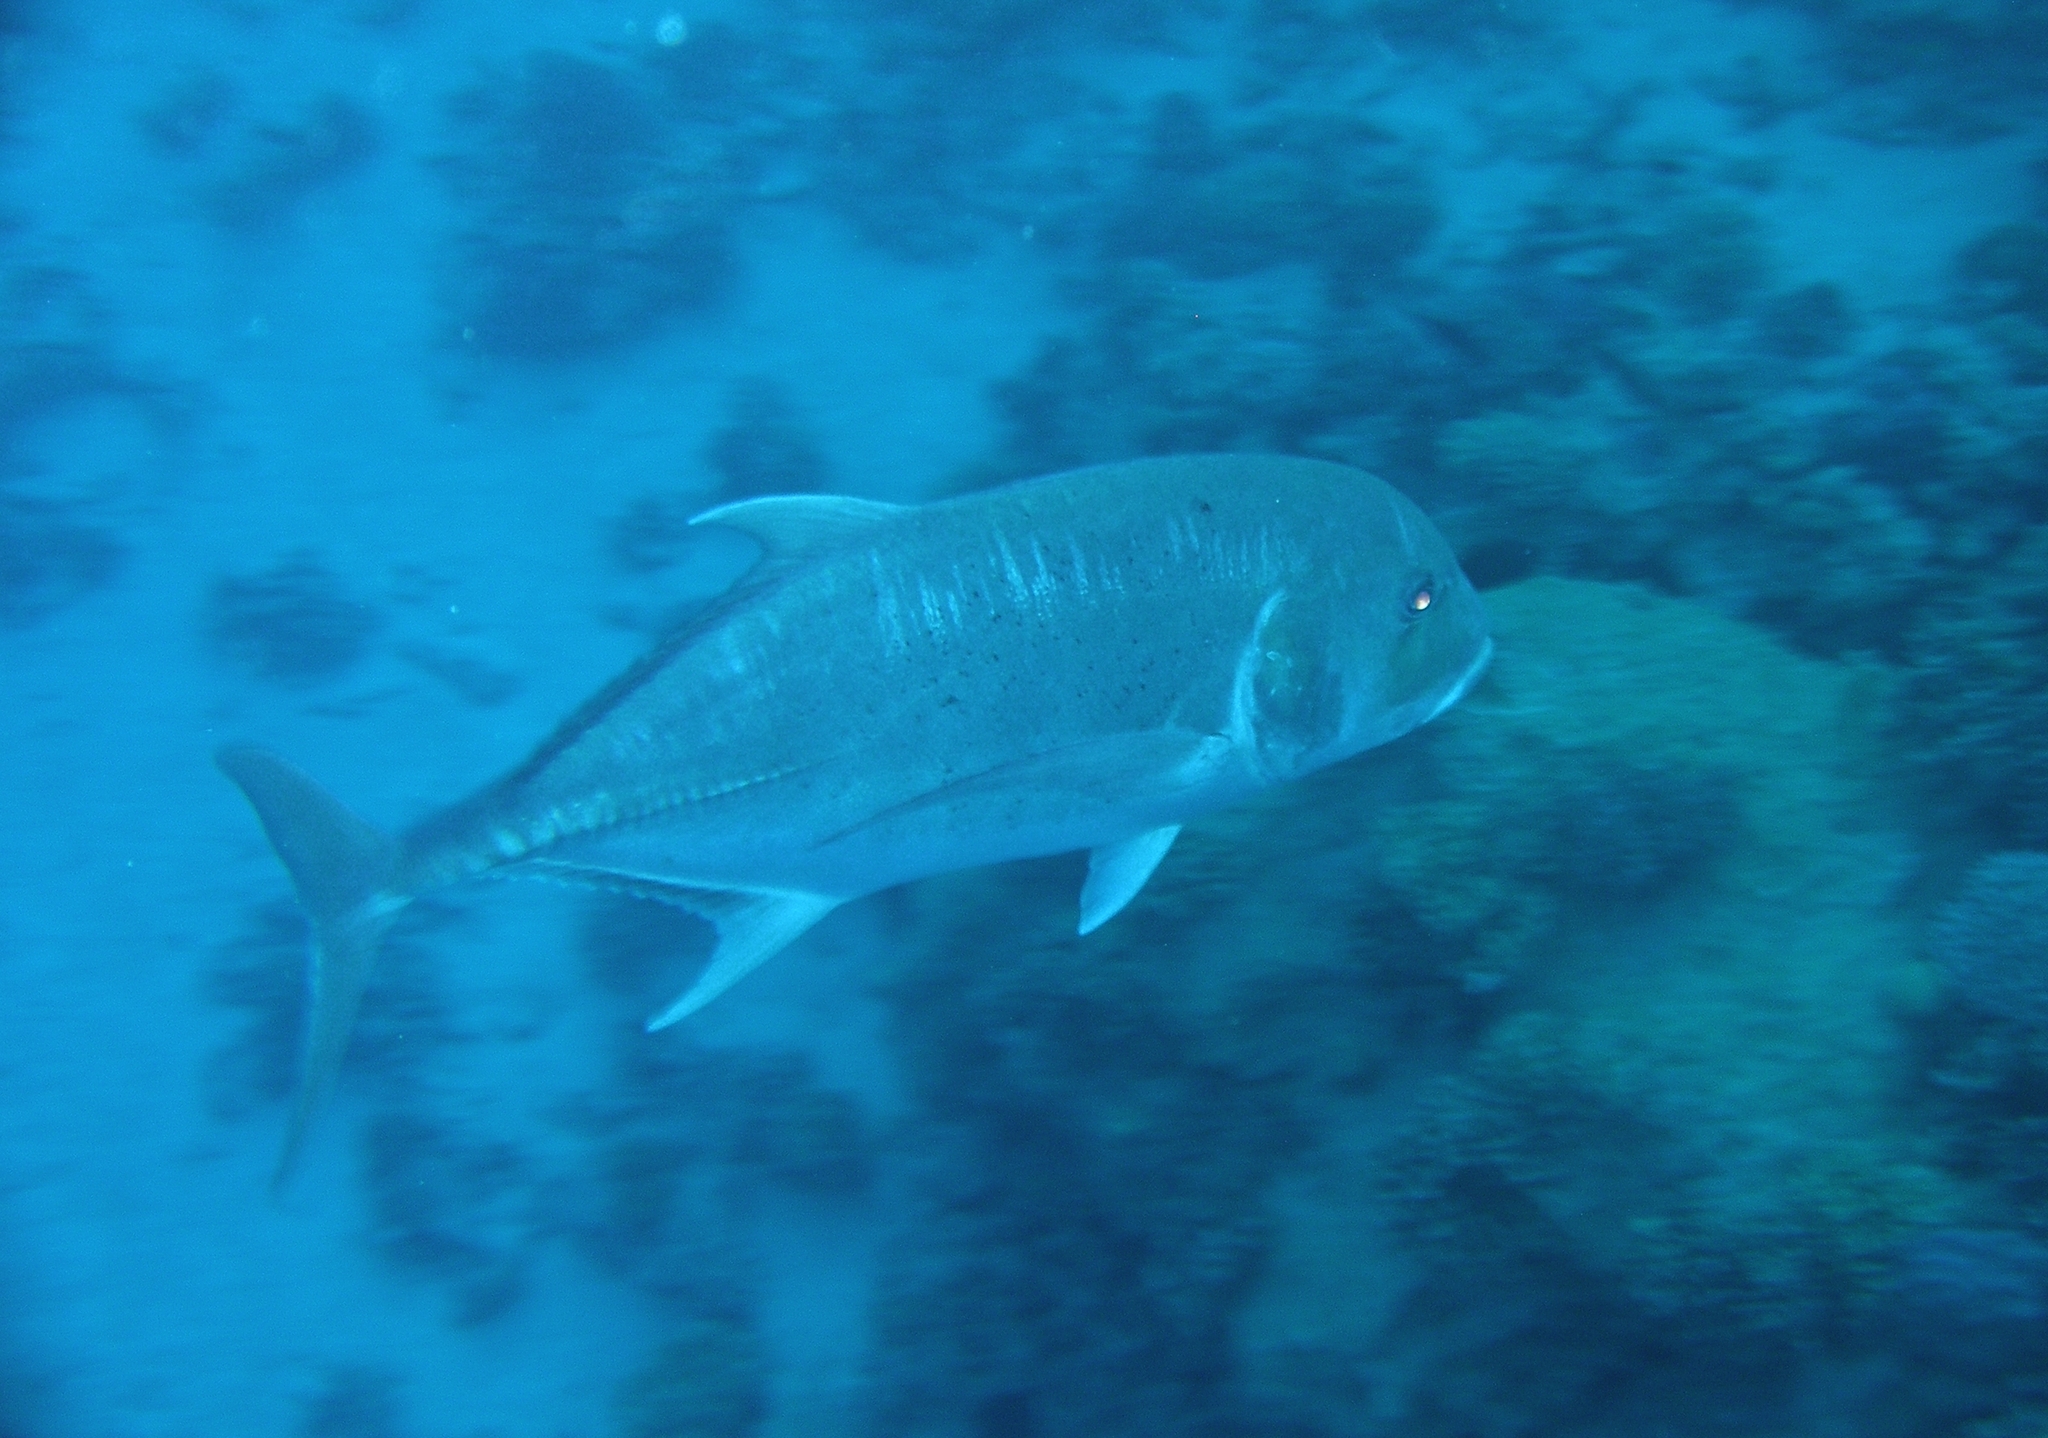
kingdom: Animalia
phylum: Chordata
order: Perciformes
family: Carangidae
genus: Caranx
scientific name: Caranx ignobilis
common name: Giant trevally
